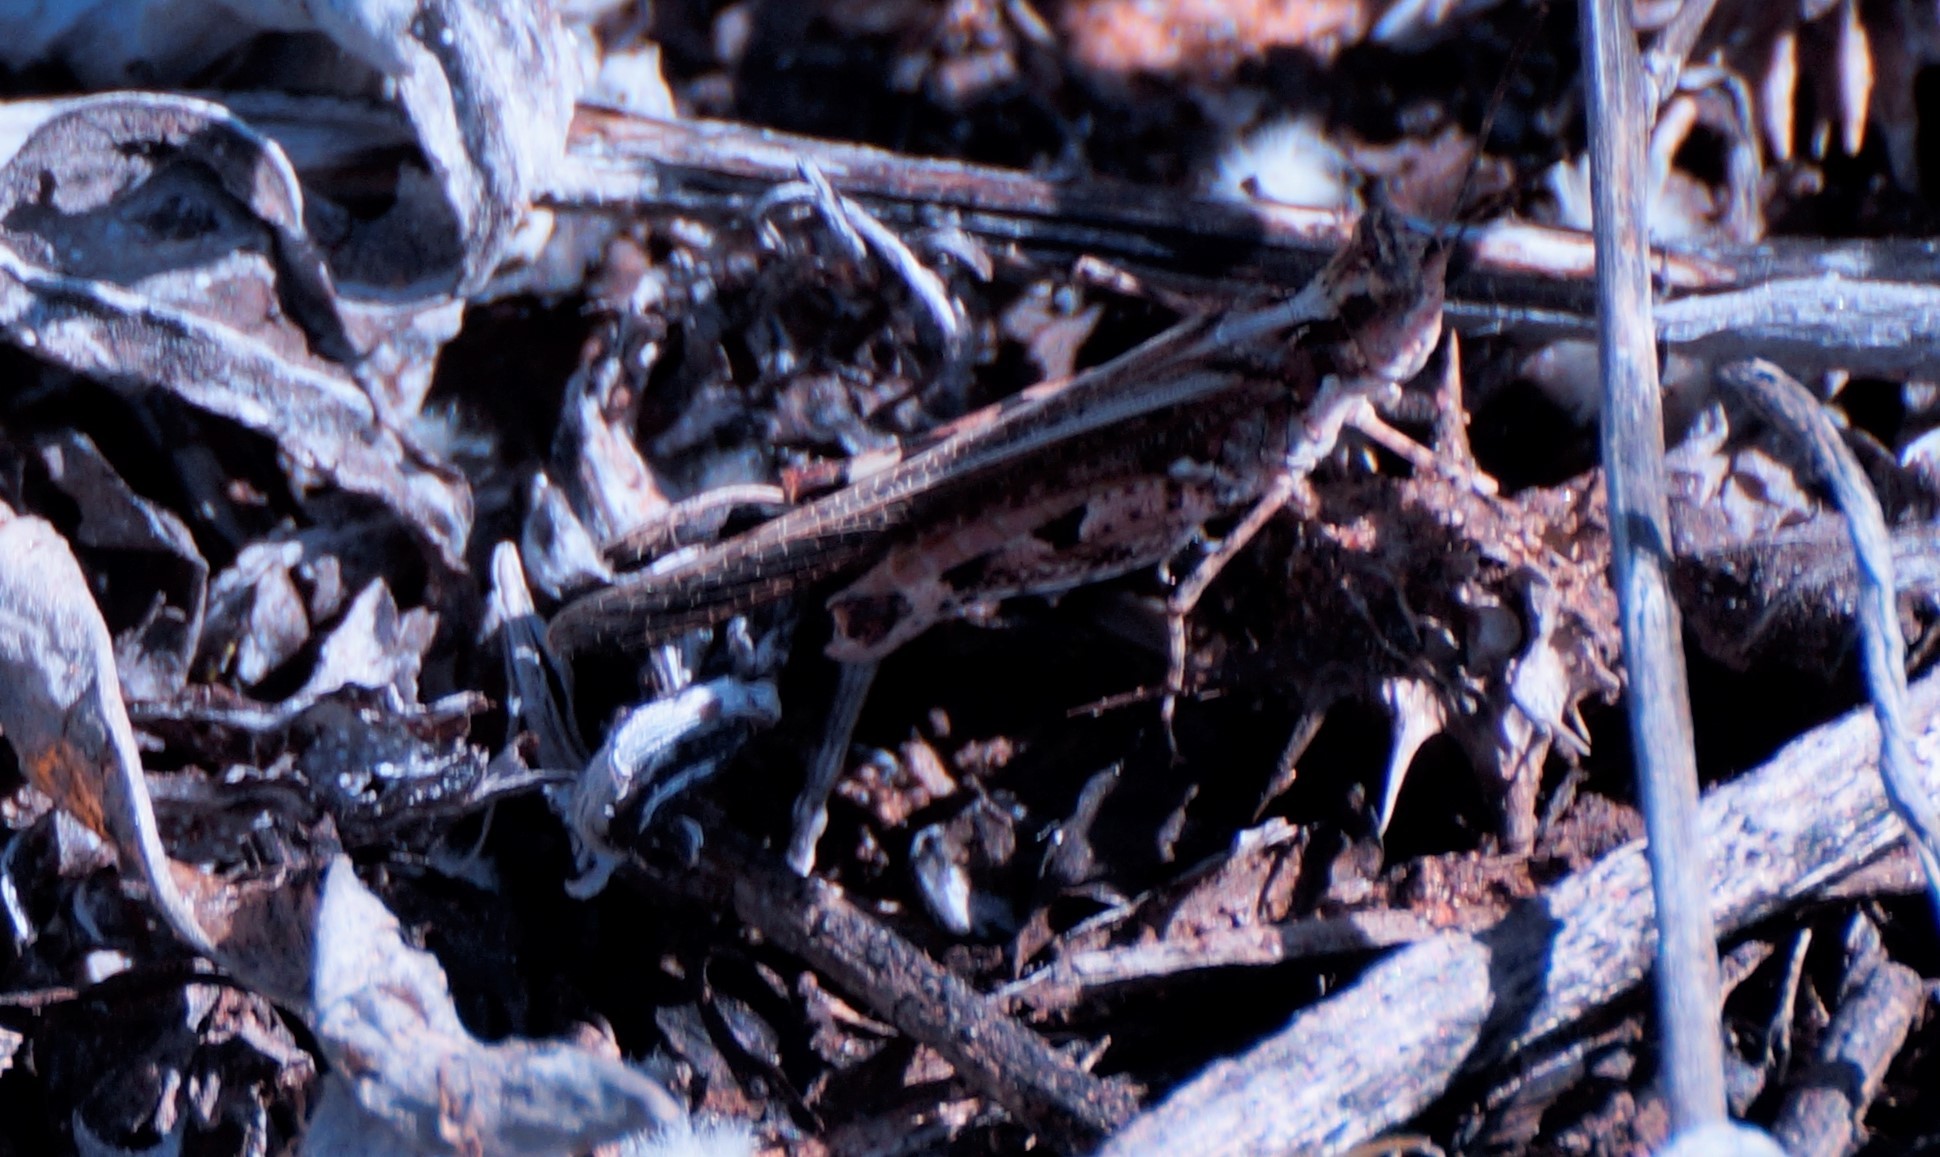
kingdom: Animalia
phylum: Arthropoda
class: Insecta
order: Orthoptera
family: Acrididae
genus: Pycnostictus
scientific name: Pycnostictus seriatus
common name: Common bandwing
